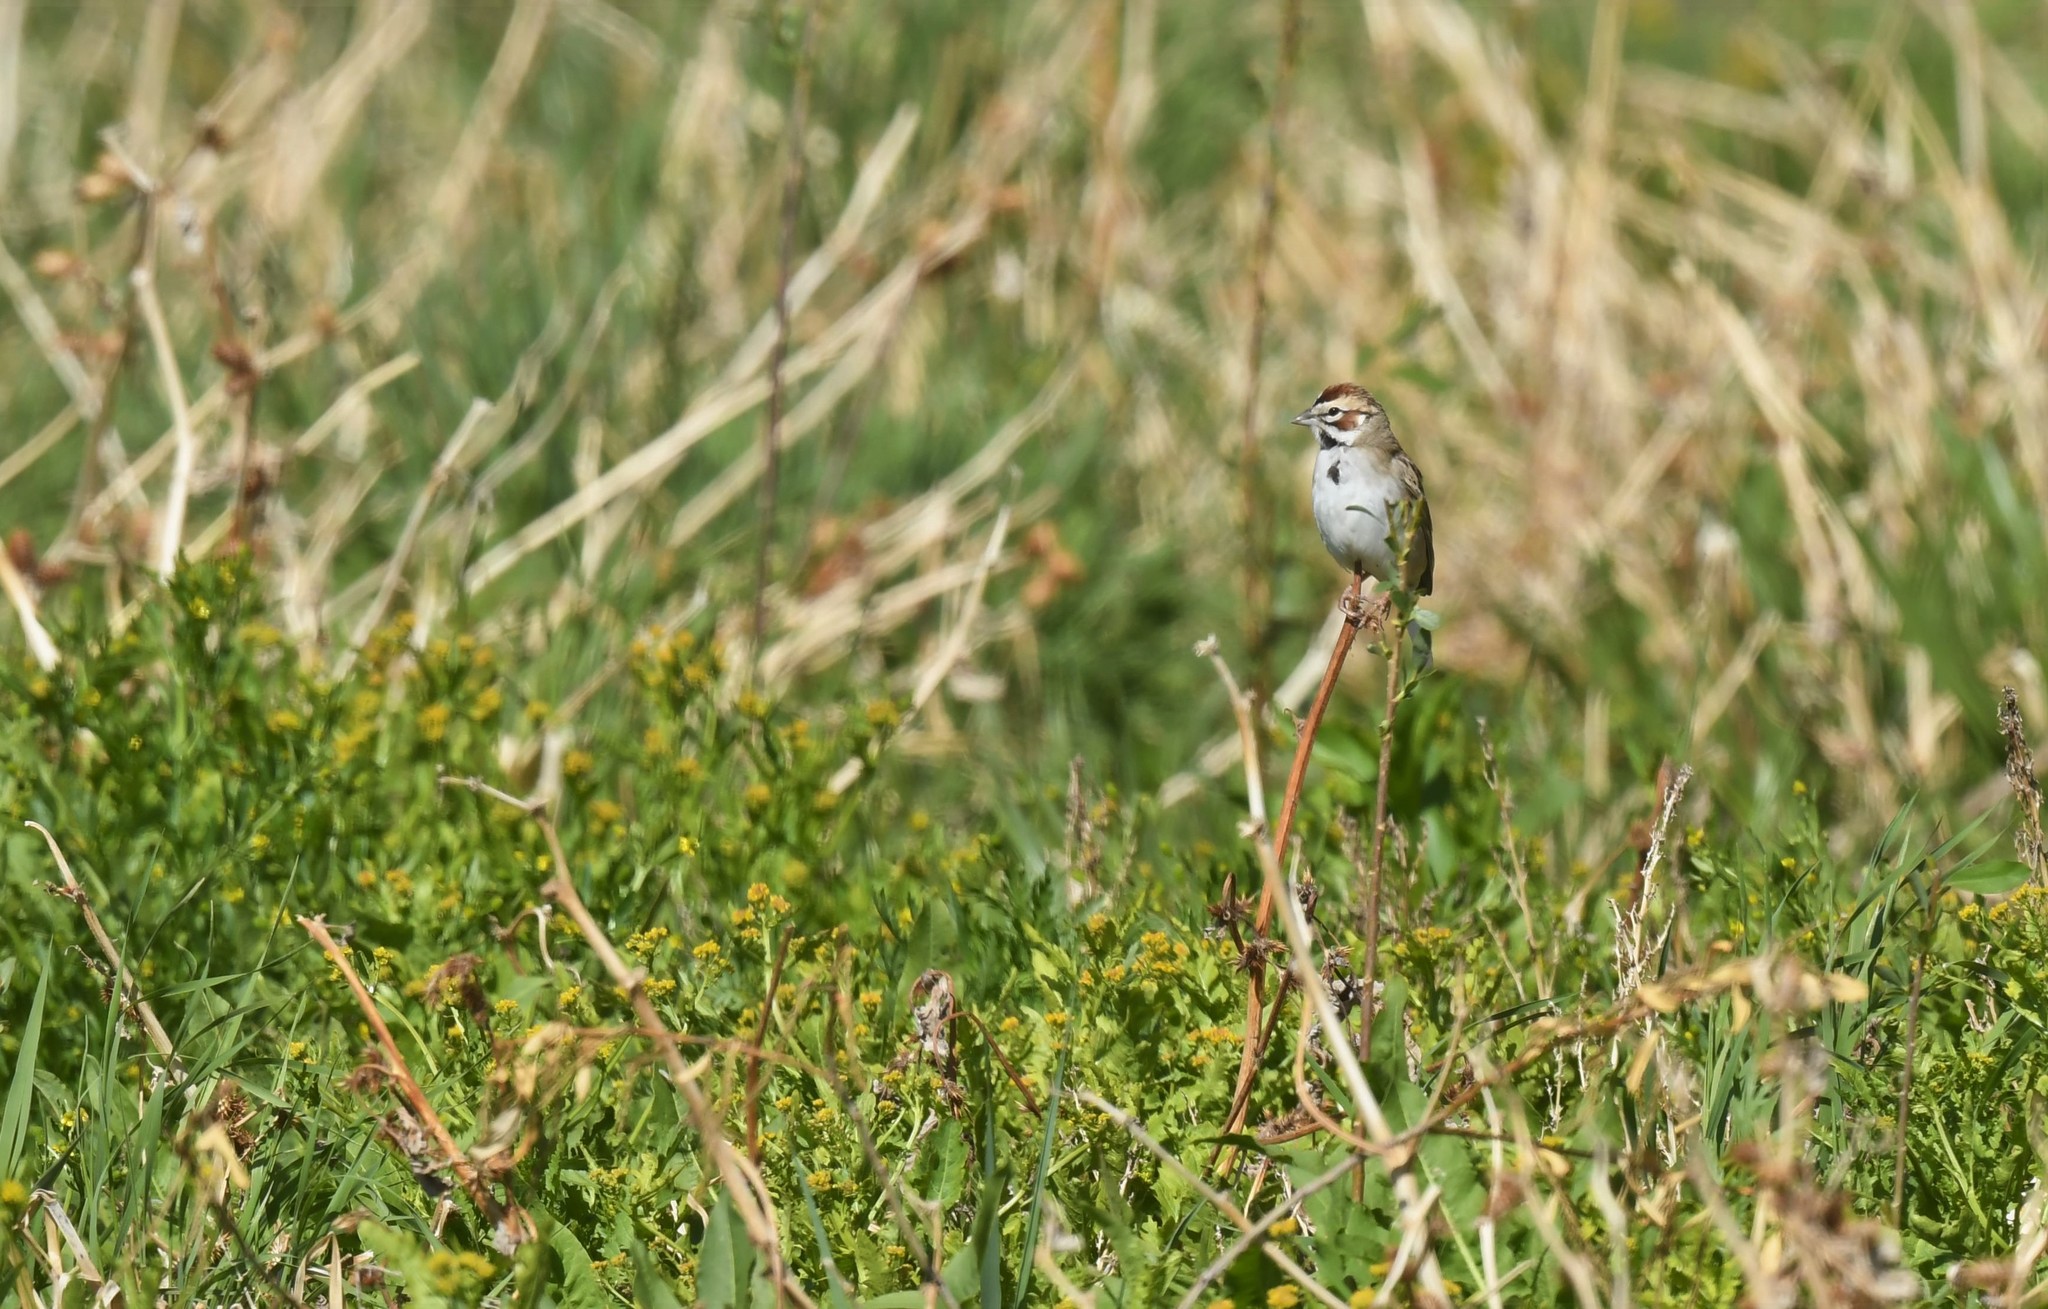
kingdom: Animalia
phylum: Chordata
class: Aves
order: Passeriformes
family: Passerellidae
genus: Chondestes
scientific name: Chondestes grammacus
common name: Lark sparrow
